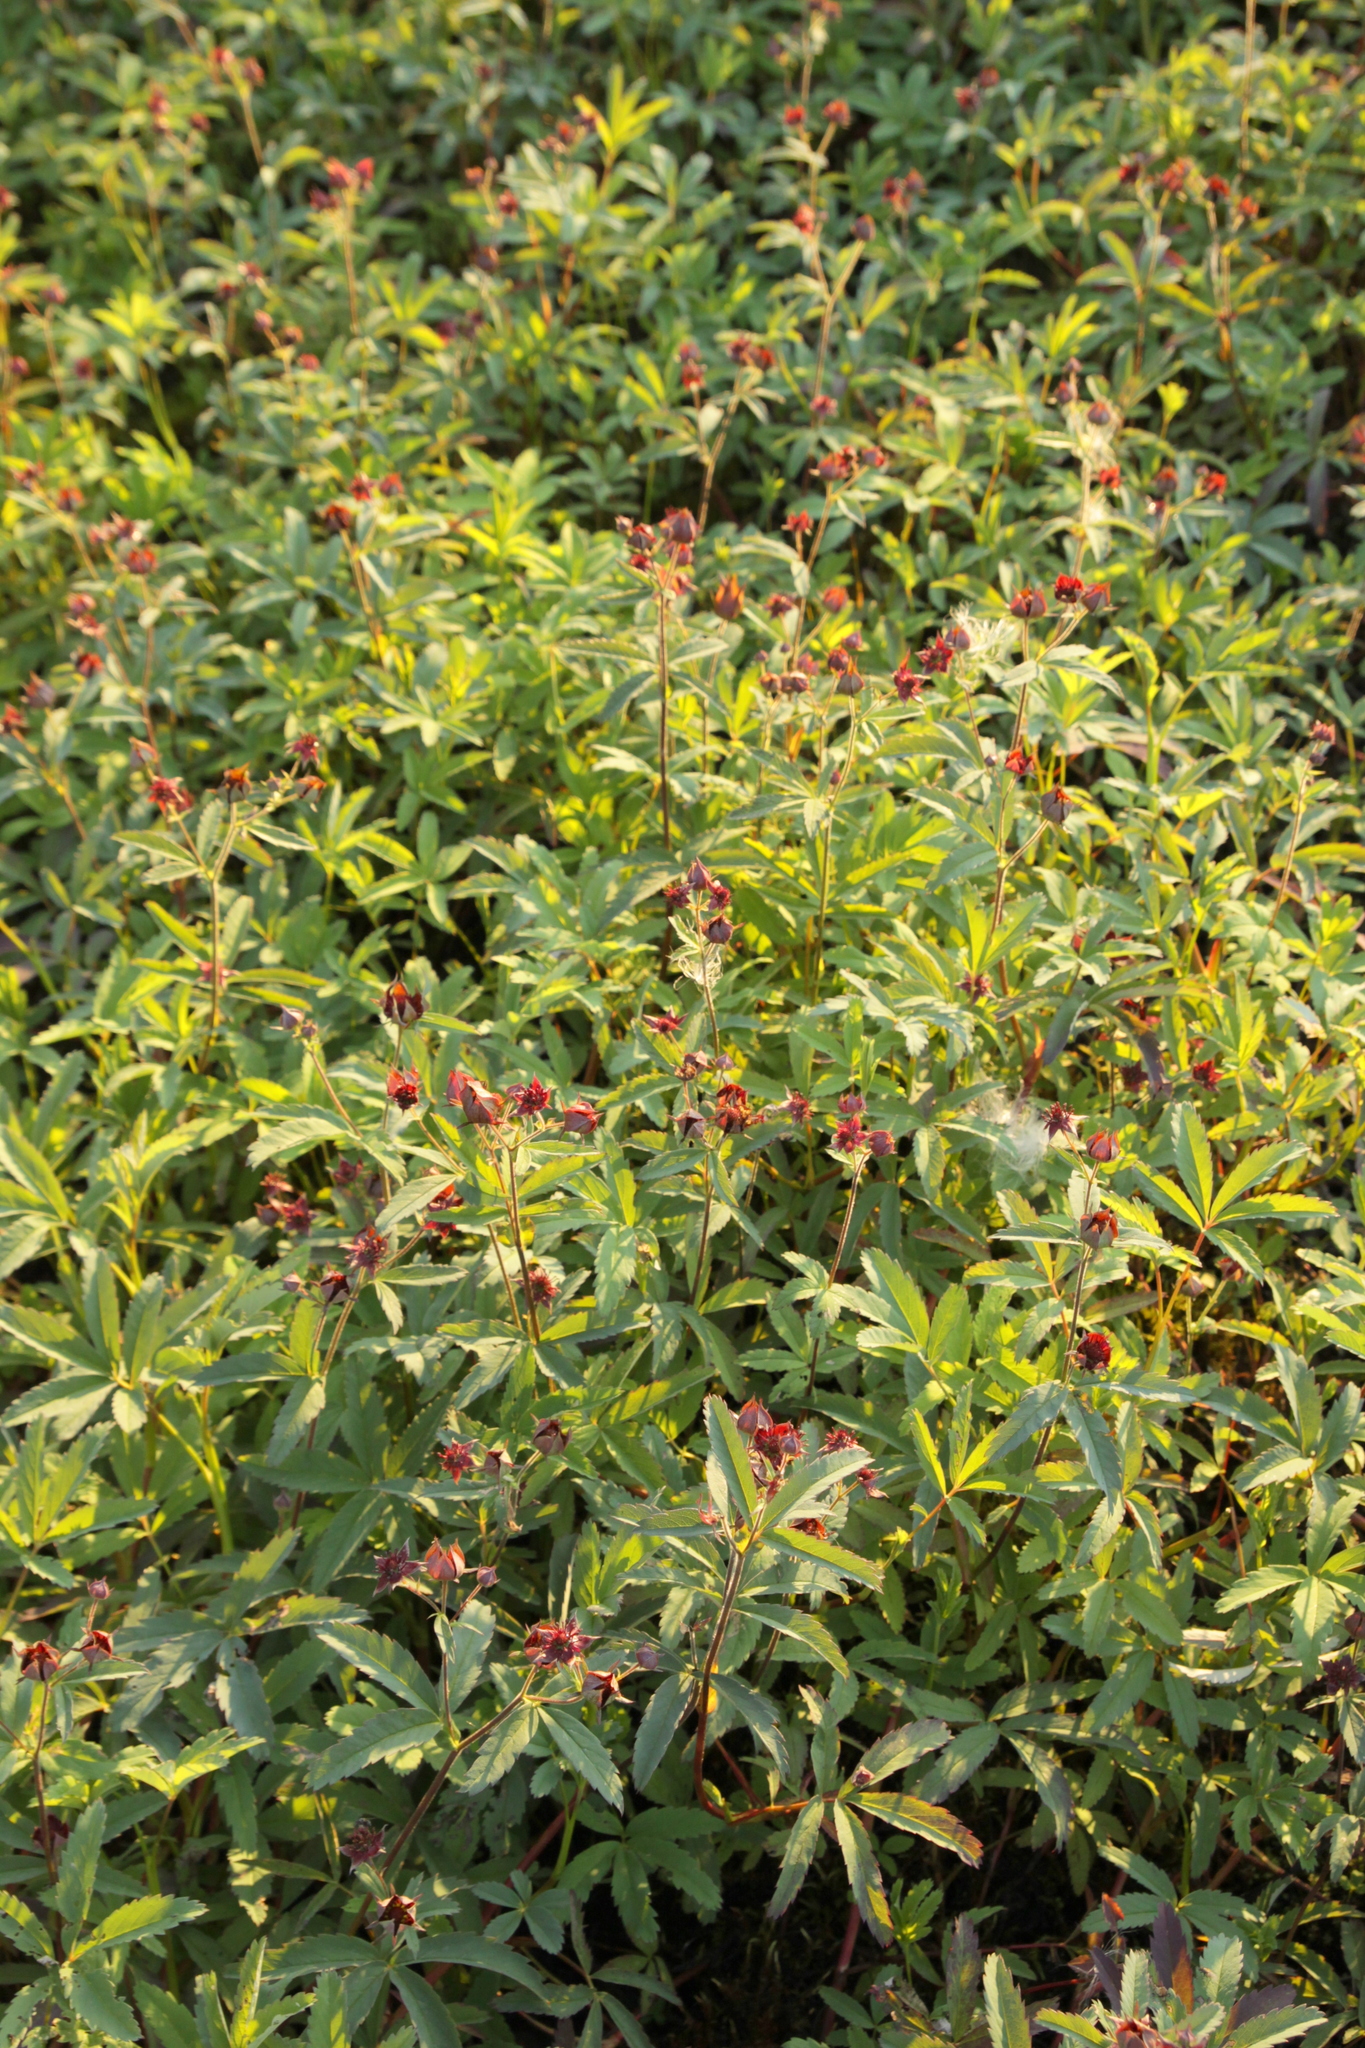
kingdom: Plantae
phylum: Tracheophyta
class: Magnoliopsida
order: Rosales
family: Rosaceae
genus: Comarum
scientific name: Comarum palustre
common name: Marsh cinquefoil
